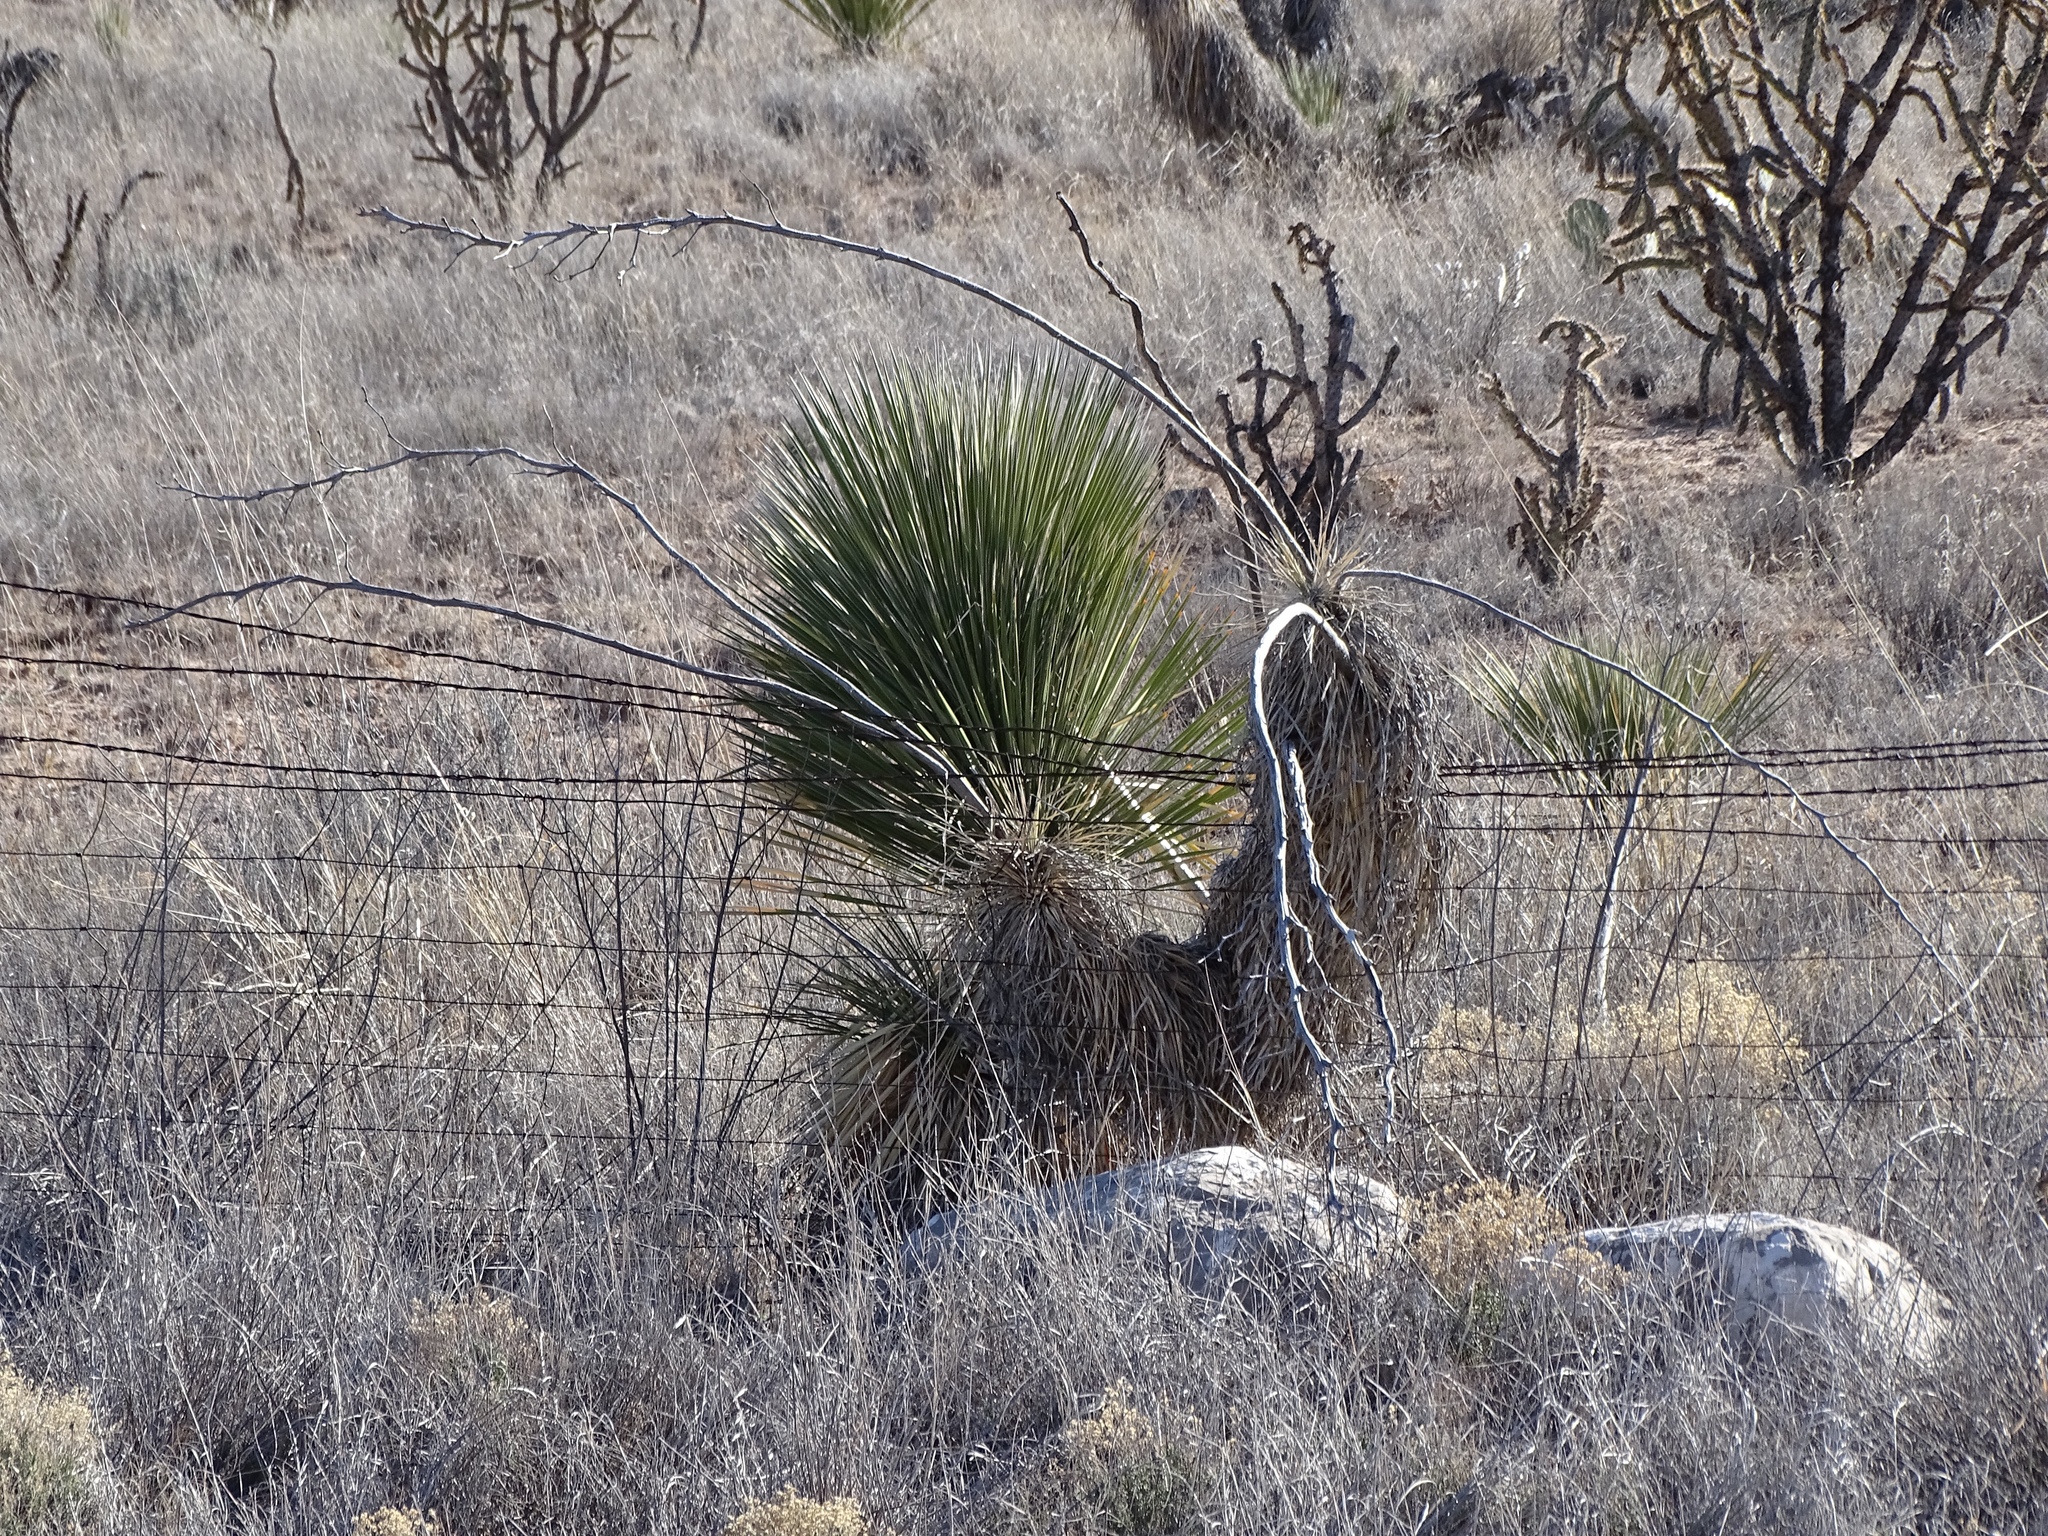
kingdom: Plantae
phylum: Tracheophyta
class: Liliopsida
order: Asparagales
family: Asparagaceae
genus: Yucca
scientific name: Yucca elata
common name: Palmella
